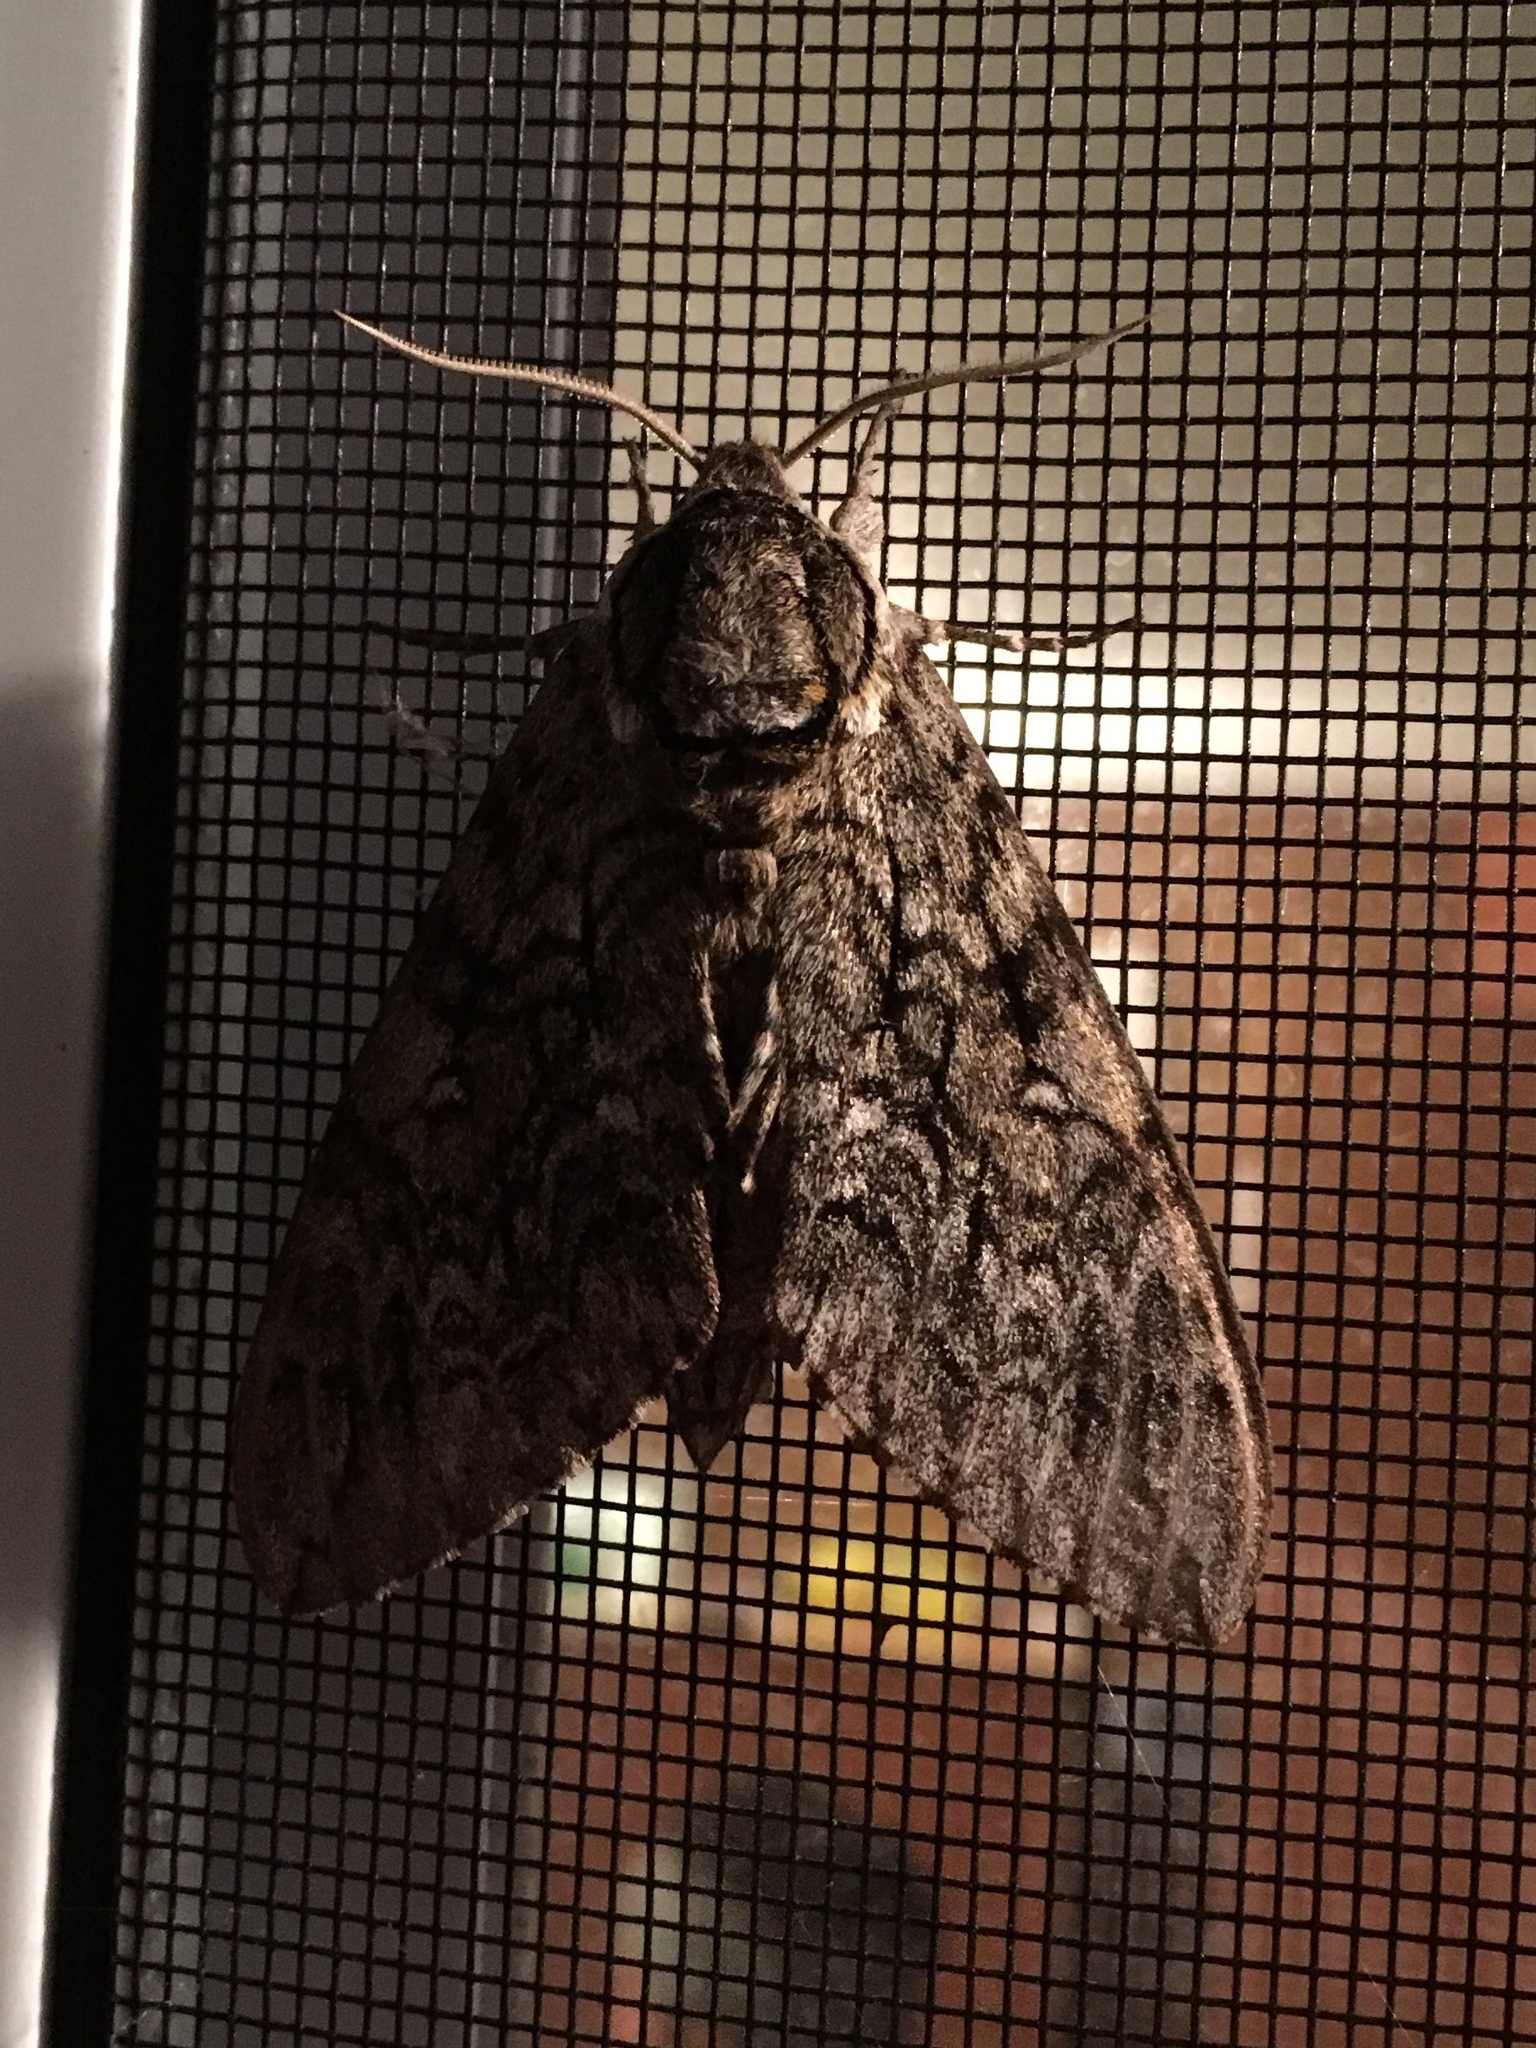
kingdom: Animalia
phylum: Arthropoda
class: Insecta
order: Lepidoptera
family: Sphingidae
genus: Ceratomia
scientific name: Ceratomia undulosa
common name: Waved sphinx
